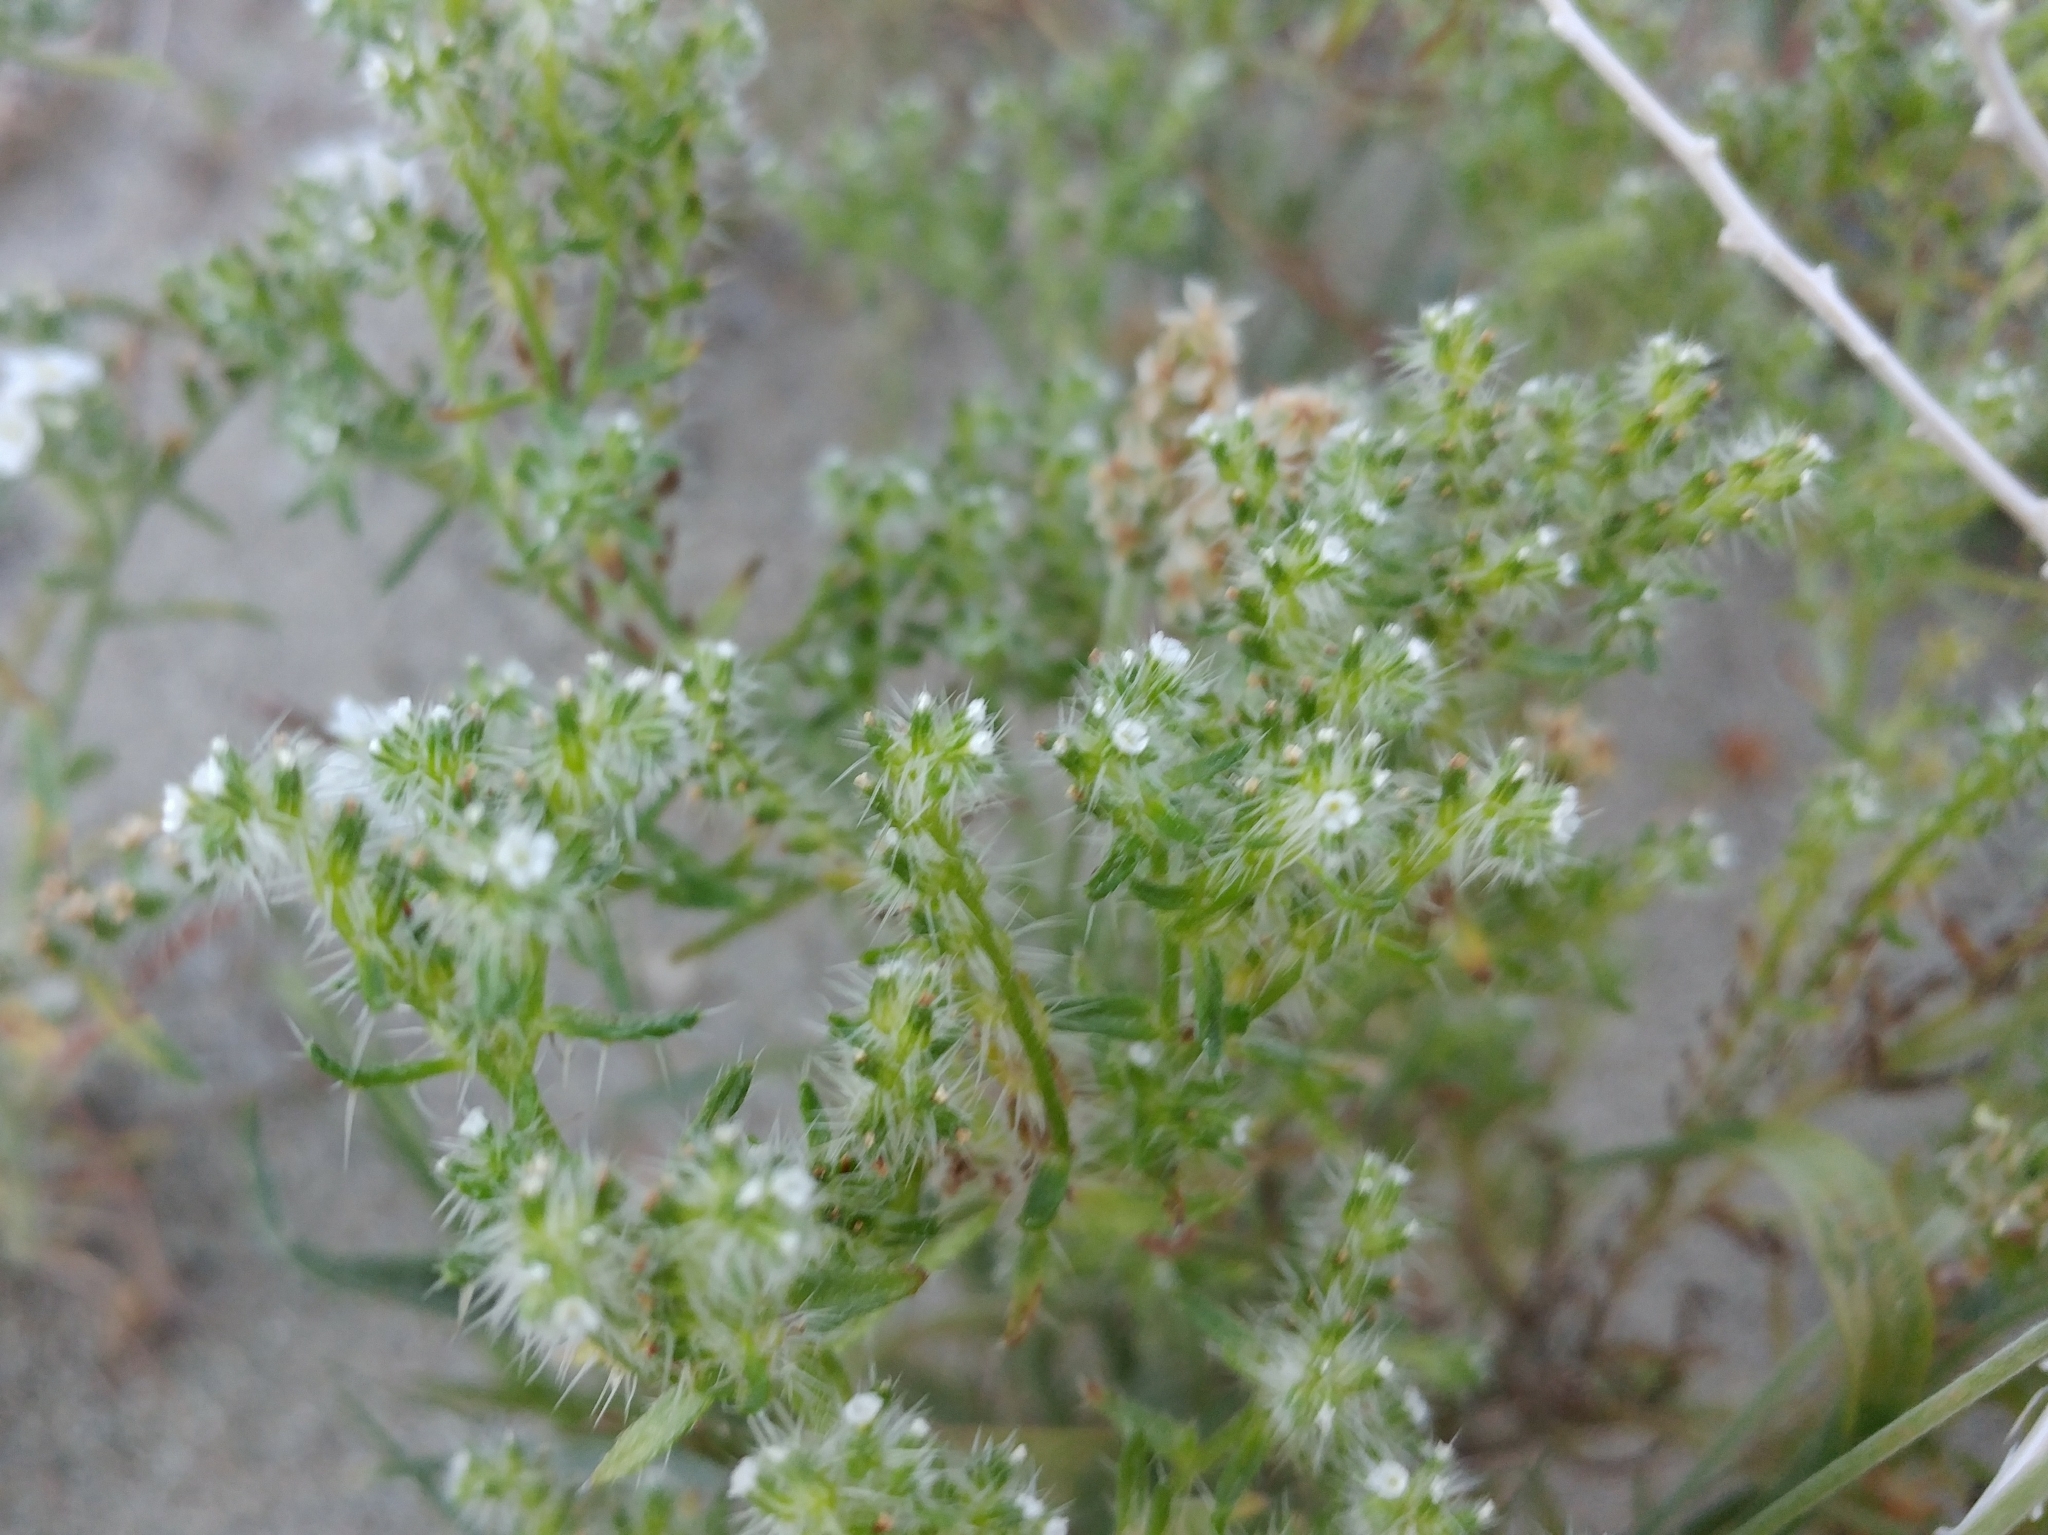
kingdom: Plantae
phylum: Tracheophyta
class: Magnoliopsida
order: Boraginales
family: Boraginaceae
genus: Cryptantha
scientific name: Cryptantha maritima
